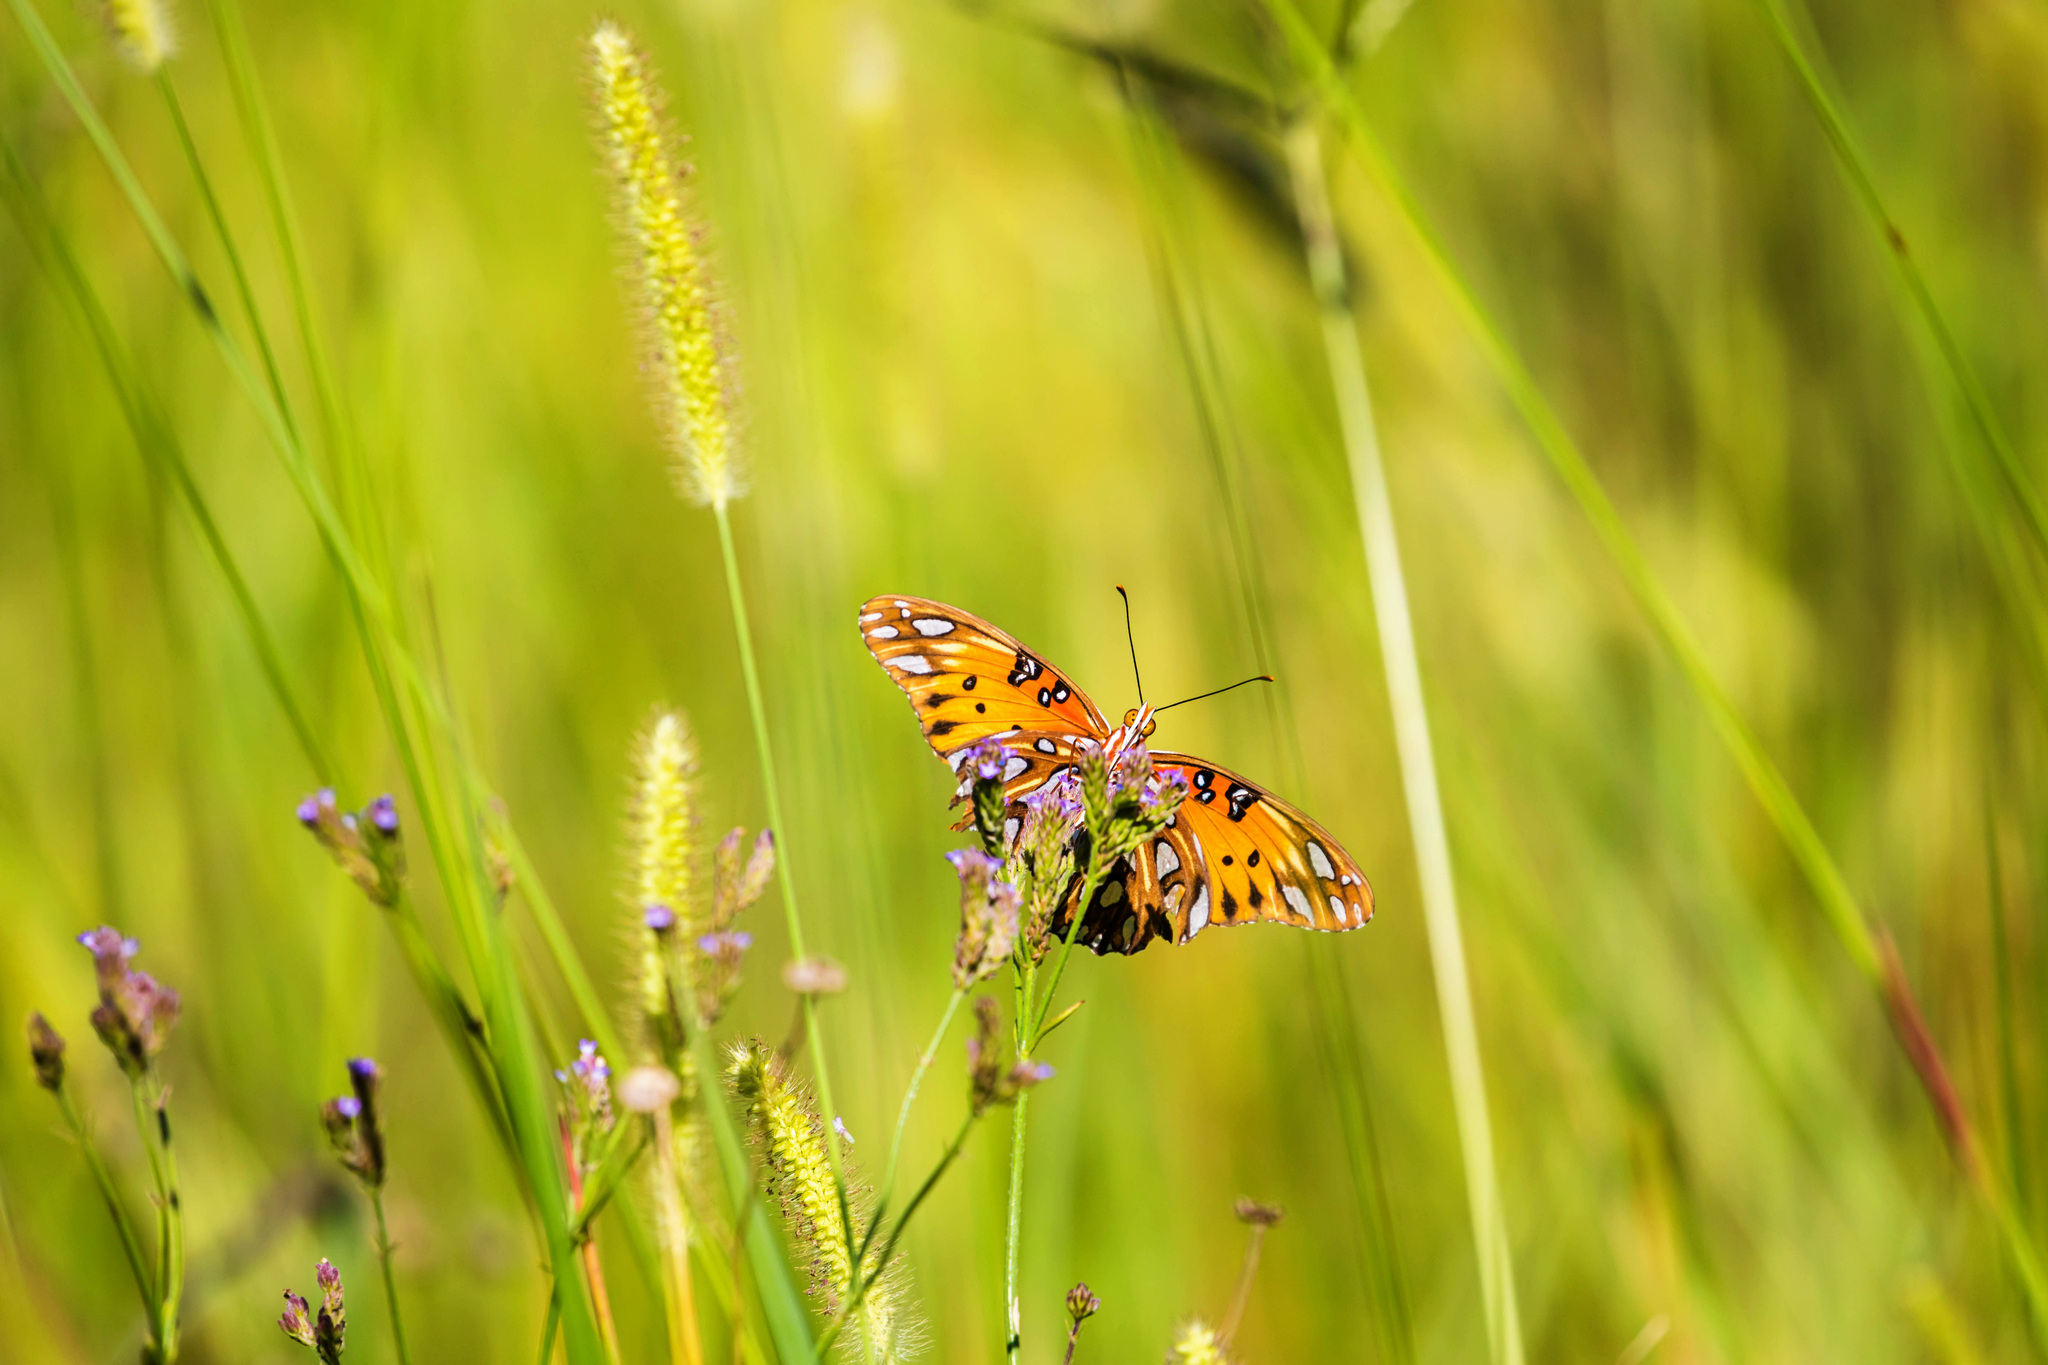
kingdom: Animalia
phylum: Arthropoda
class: Insecta
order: Lepidoptera
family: Nymphalidae
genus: Dione
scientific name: Dione vanillae
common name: Gulf fritillary
